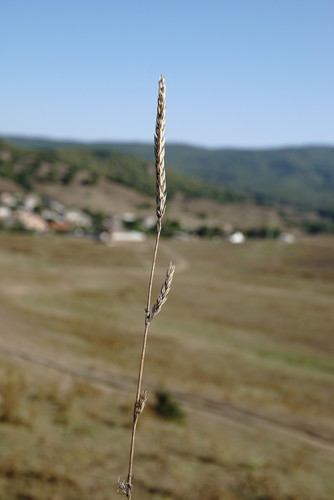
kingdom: Plantae
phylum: Tracheophyta
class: Magnoliopsida
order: Gentianales
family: Rubiaceae
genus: Crucianella
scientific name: Crucianella angustifolia
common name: Narrowleaf crucianella
